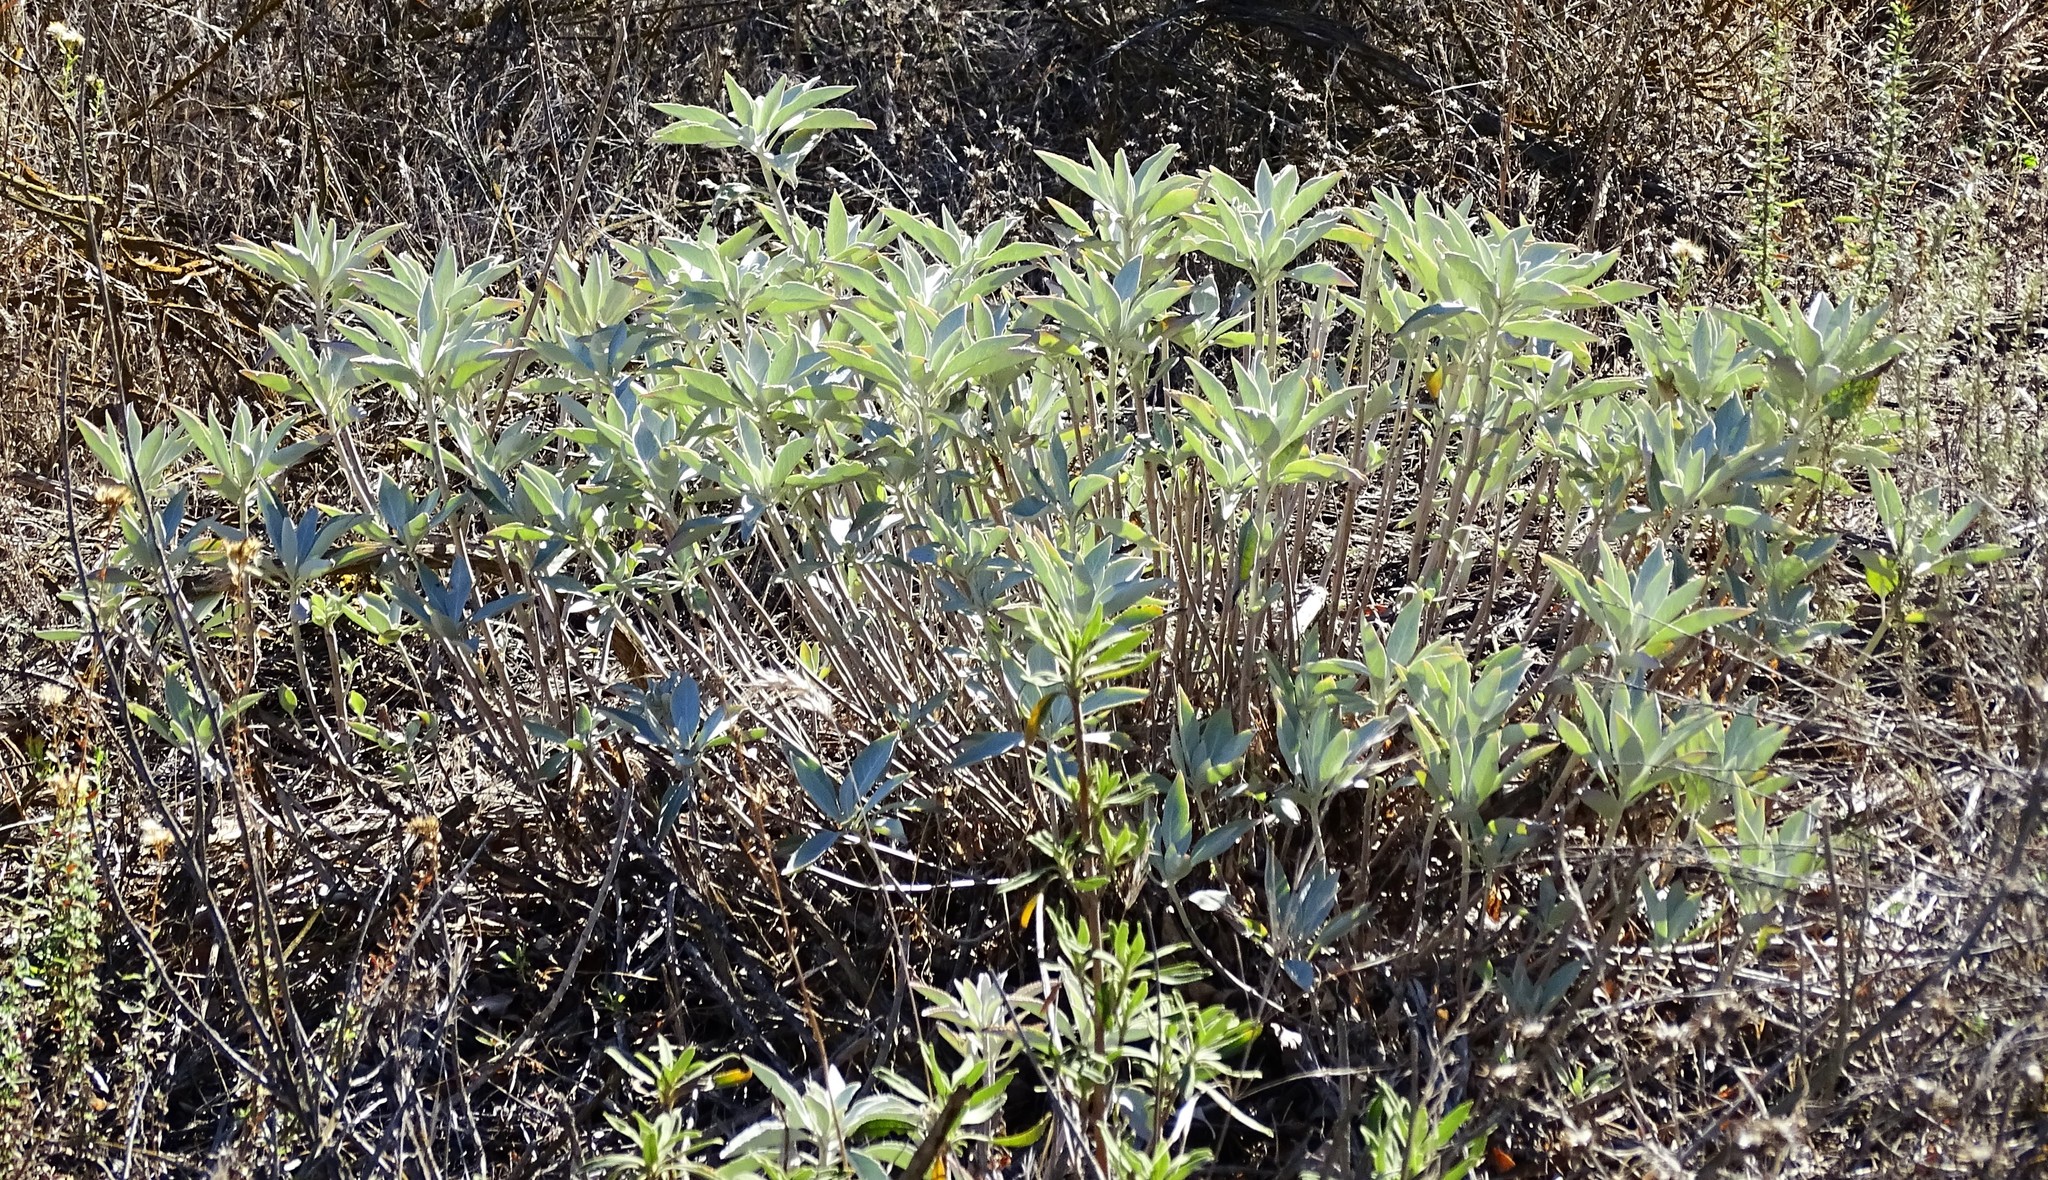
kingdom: Plantae
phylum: Tracheophyta
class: Magnoliopsida
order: Lamiales
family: Lamiaceae
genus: Salvia
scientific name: Salvia apiana
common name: White sage
